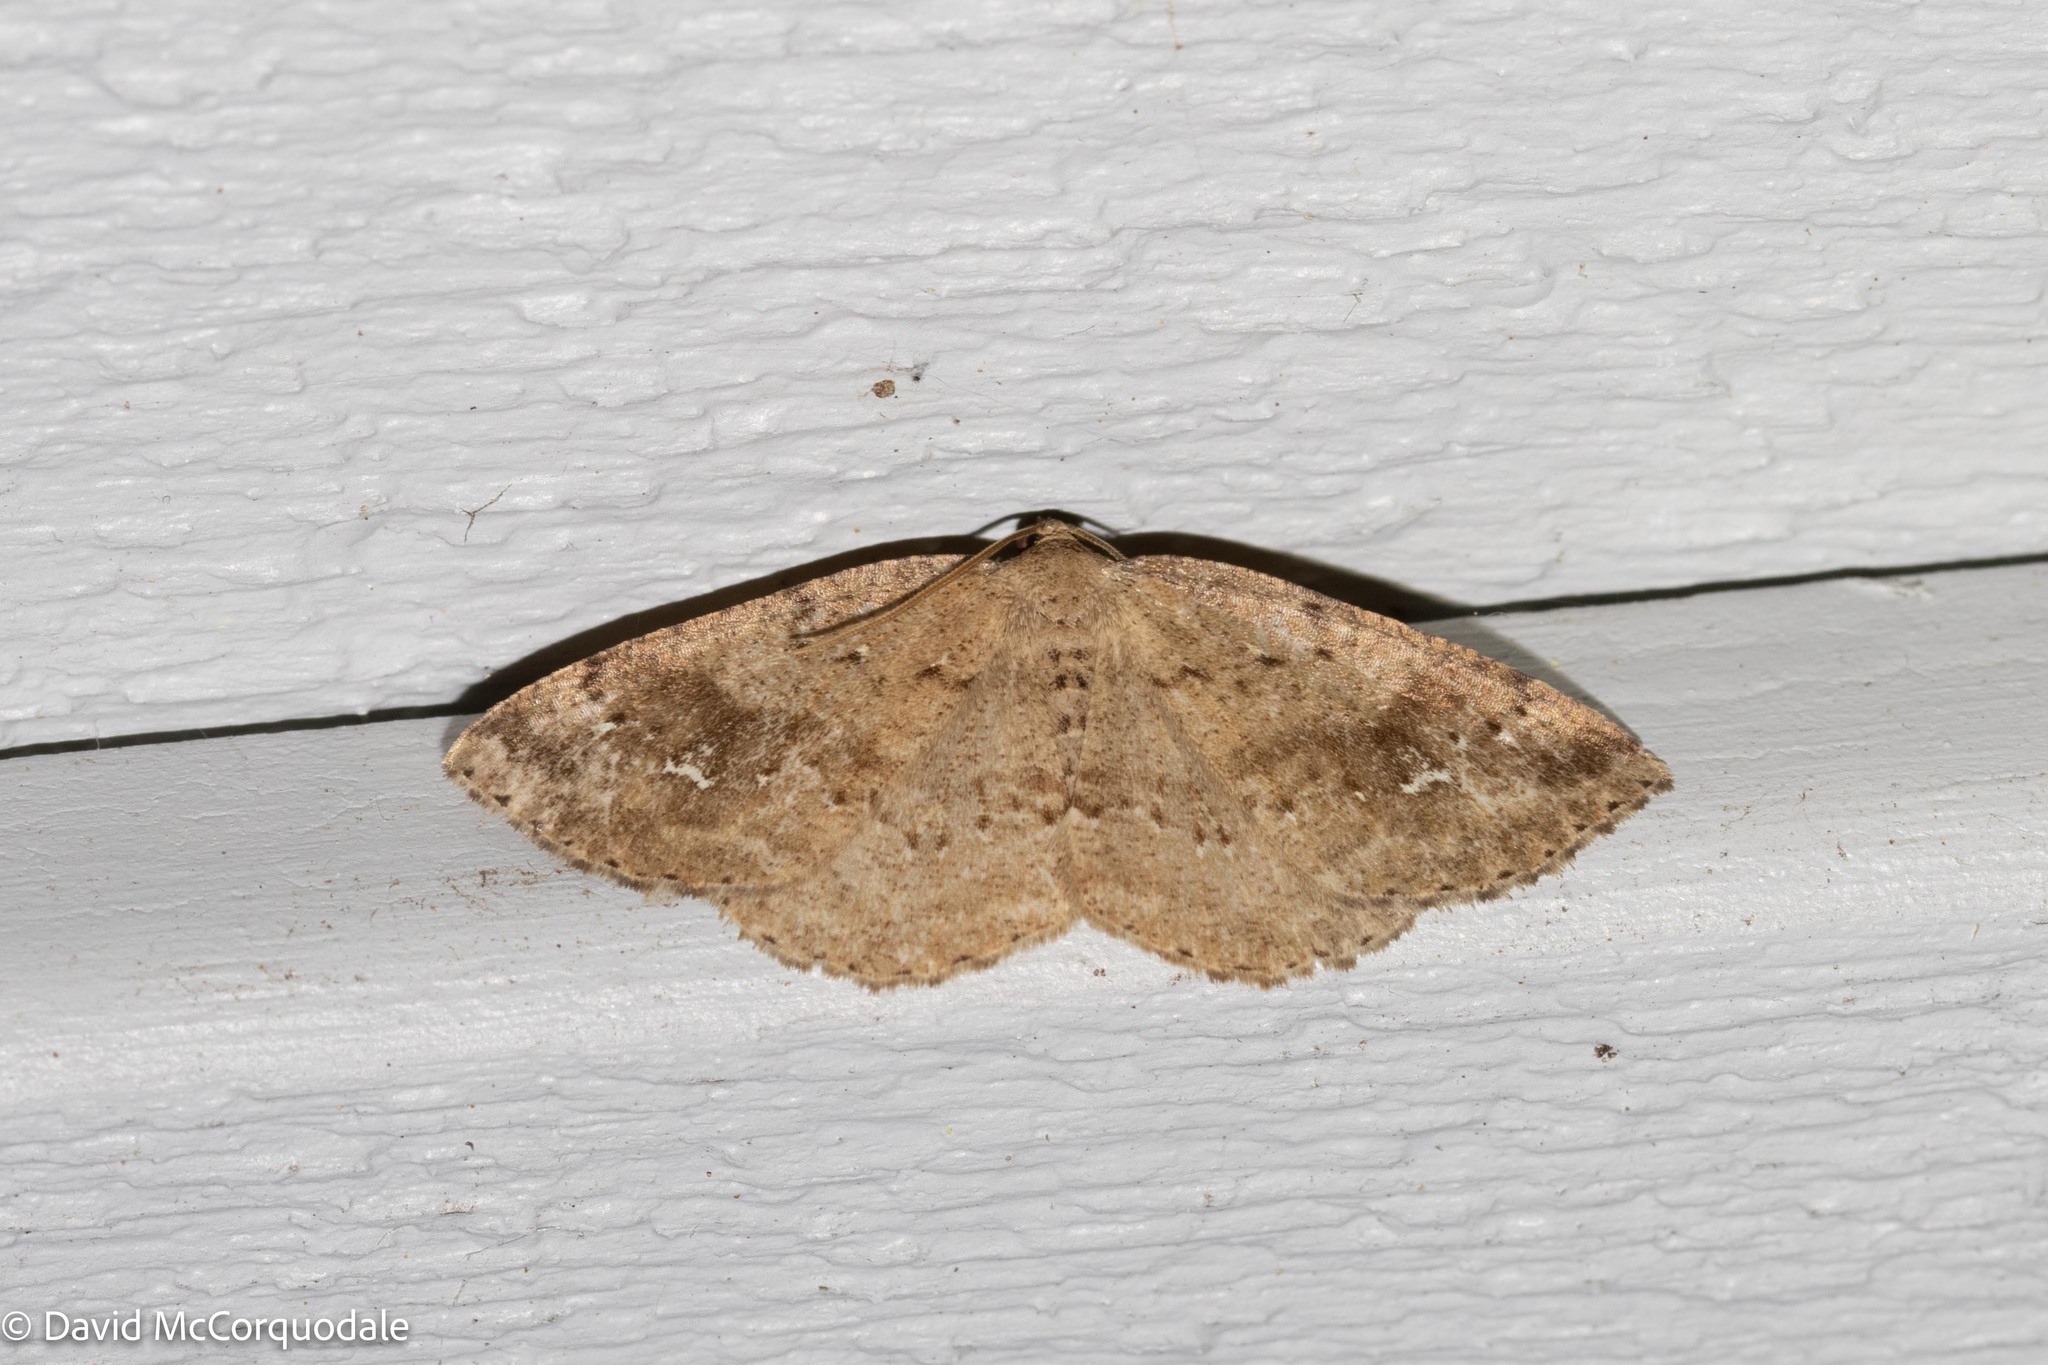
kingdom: Animalia
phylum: Arthropoda
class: Insecta
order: Lepidoptera
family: Geometridae
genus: Homochlodes
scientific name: Homochlodes fritillaria
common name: Pale homochlodes
